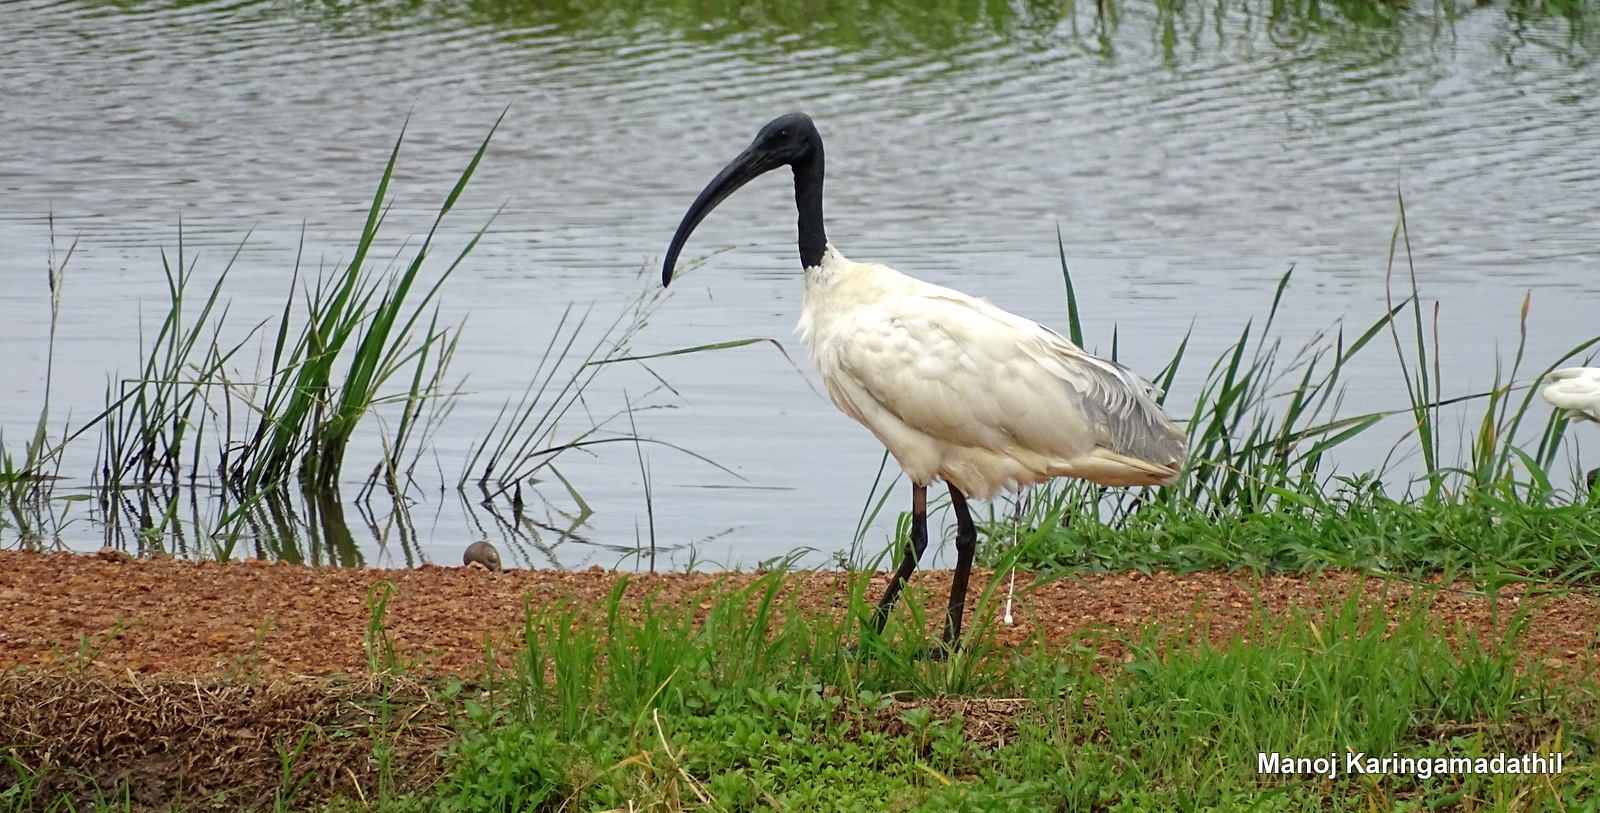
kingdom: Animalia
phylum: Chordata
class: Aves
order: Pelecaniformes
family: Threskiornithidae
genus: Threskiornis
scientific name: Threskiornis melanocephalus
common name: Black-headed ibis
